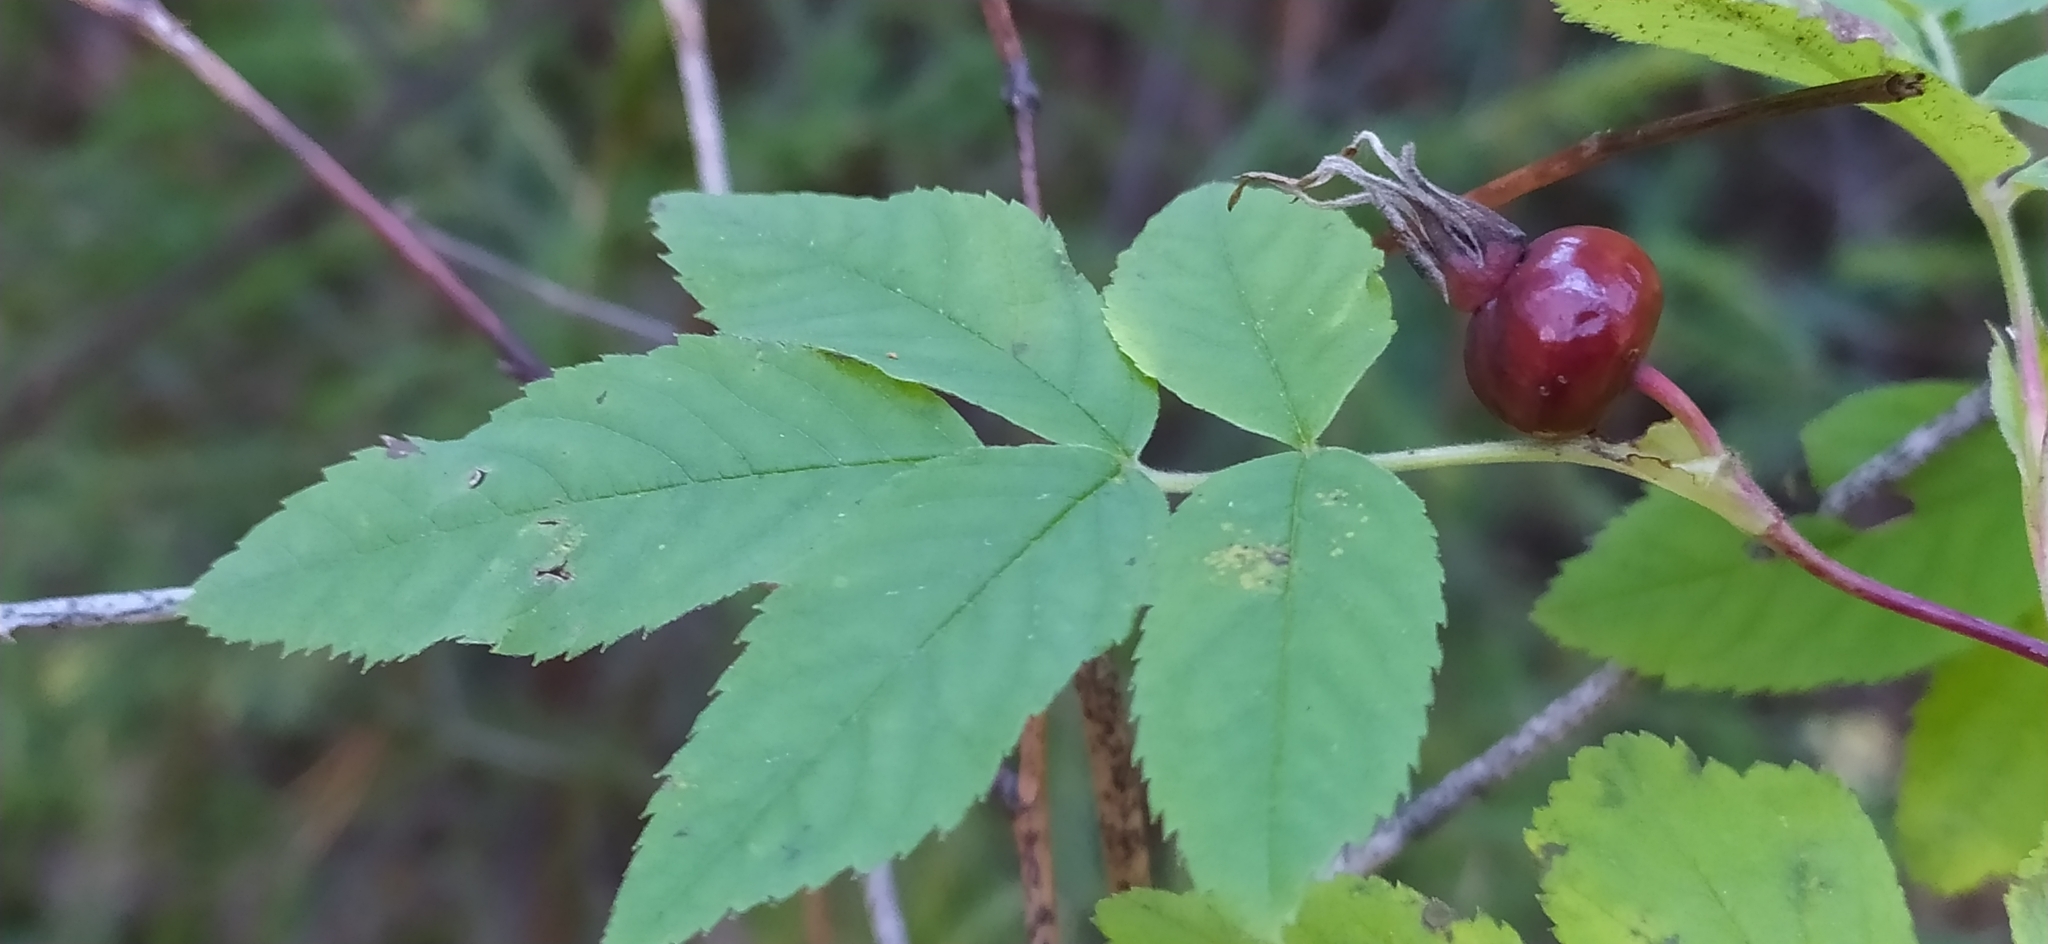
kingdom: Plantae
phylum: Tracheophyta
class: Magnoliopsida
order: Rosales
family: Rosaceae
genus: Rosa
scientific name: Rosa majalis
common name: Cinnamon rose
